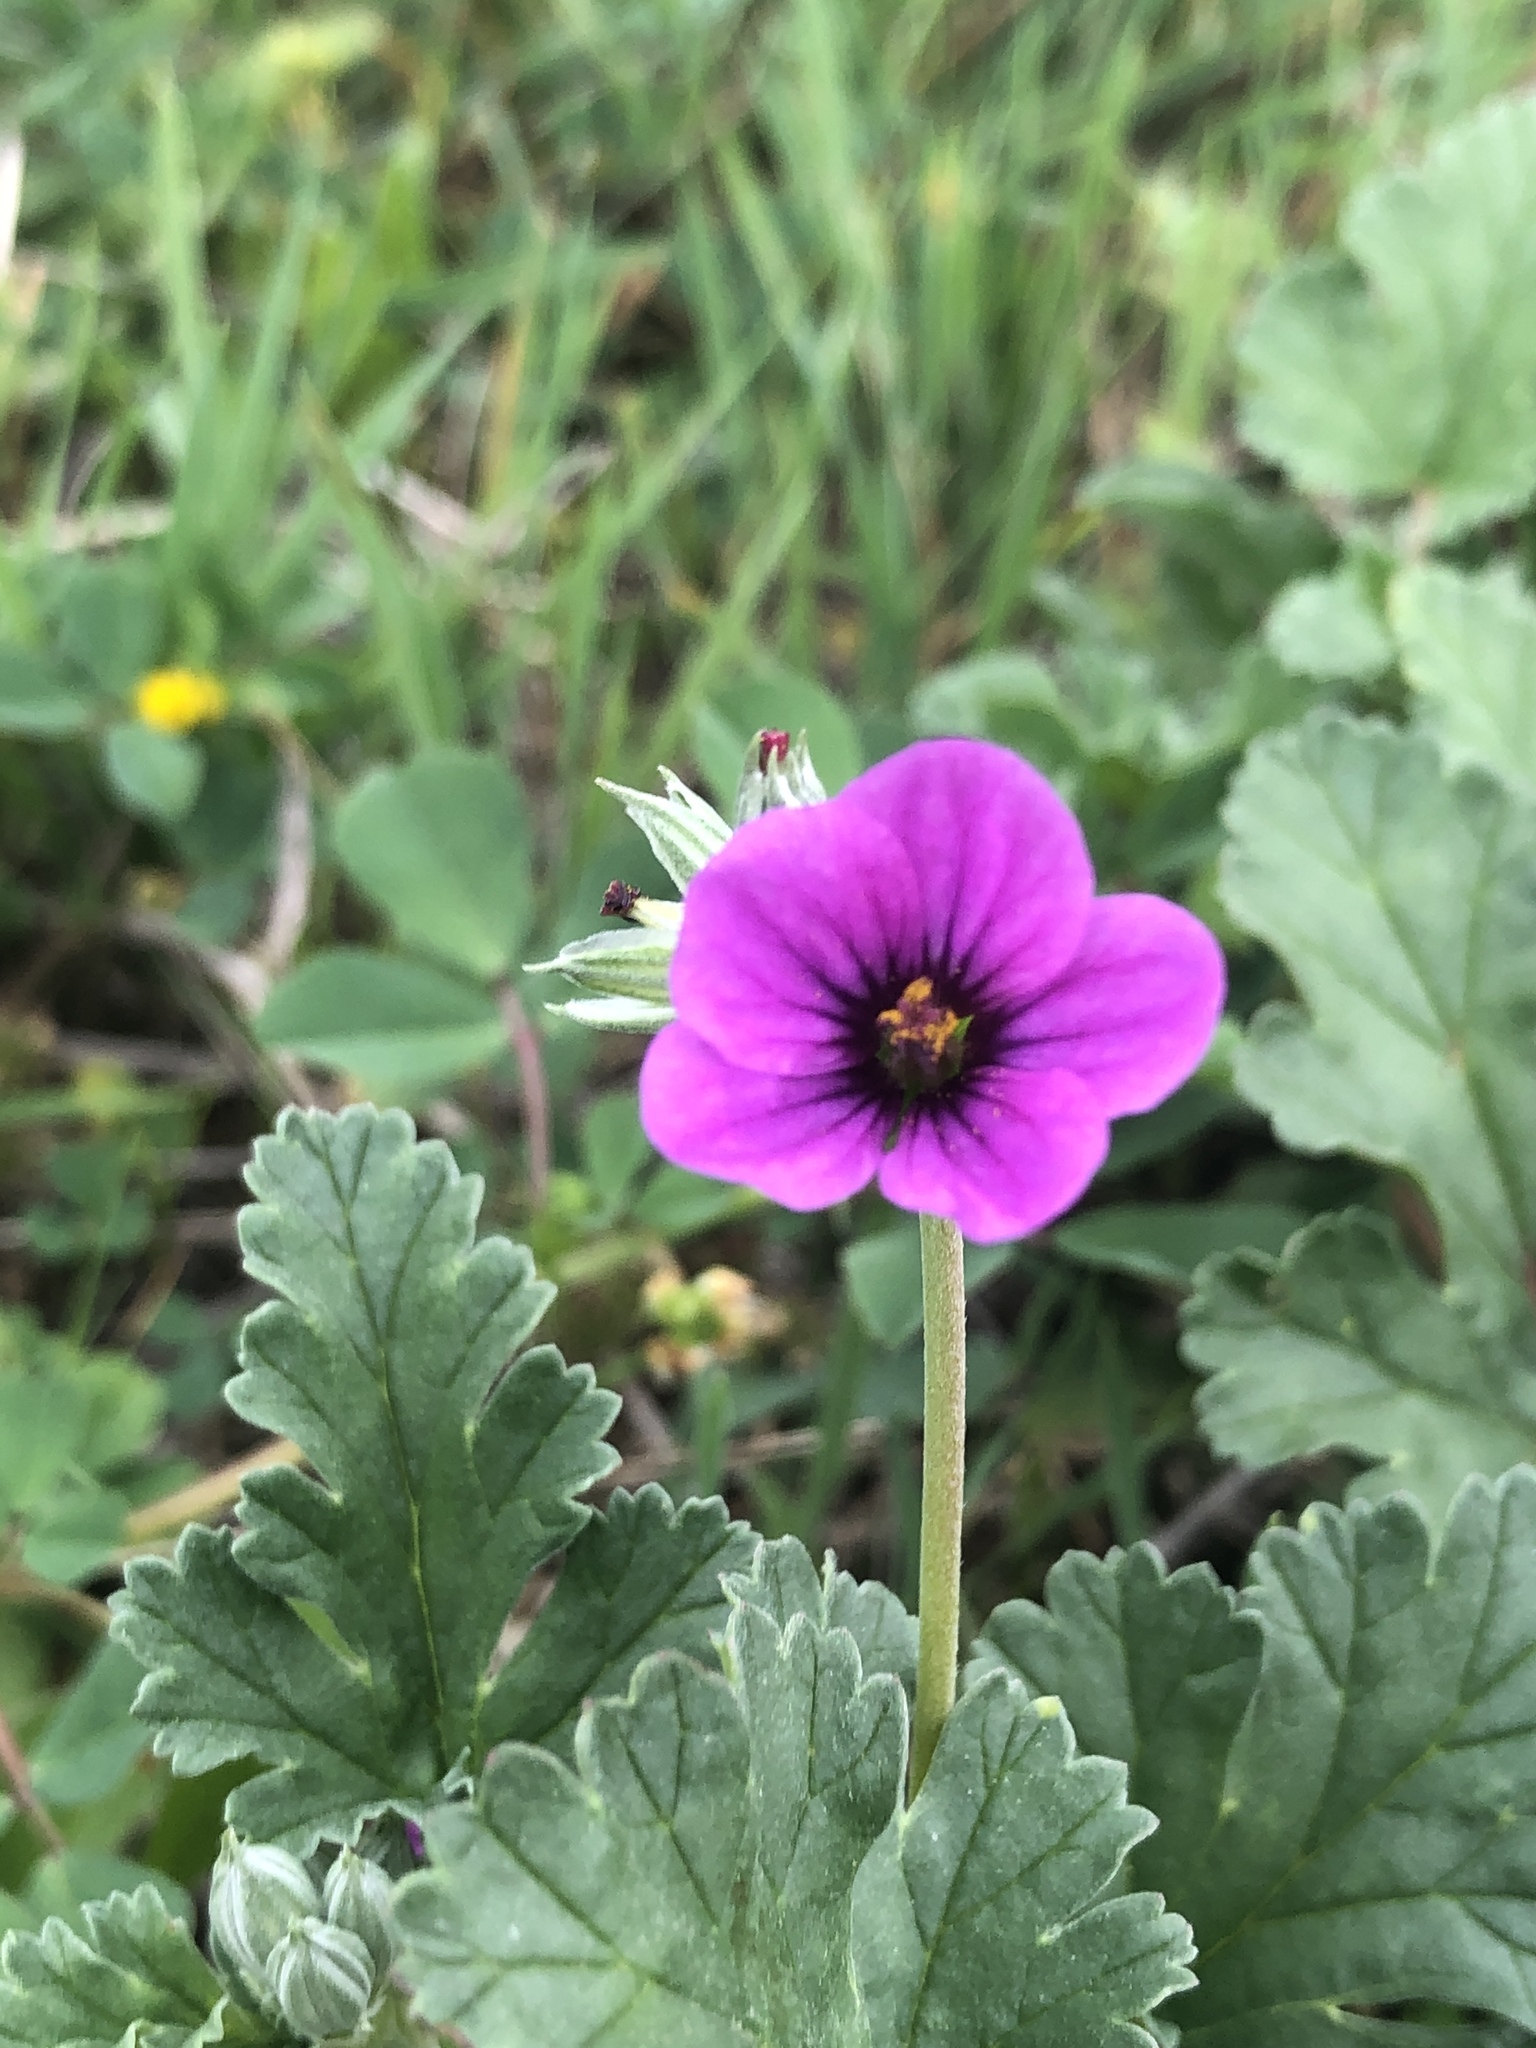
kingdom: Plantae
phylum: Tracheophyta
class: Magnoliopsida
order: Geraniales
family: Geraniaceae
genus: Erodium
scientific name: Erodium texanum
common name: Texas stork's-bill
